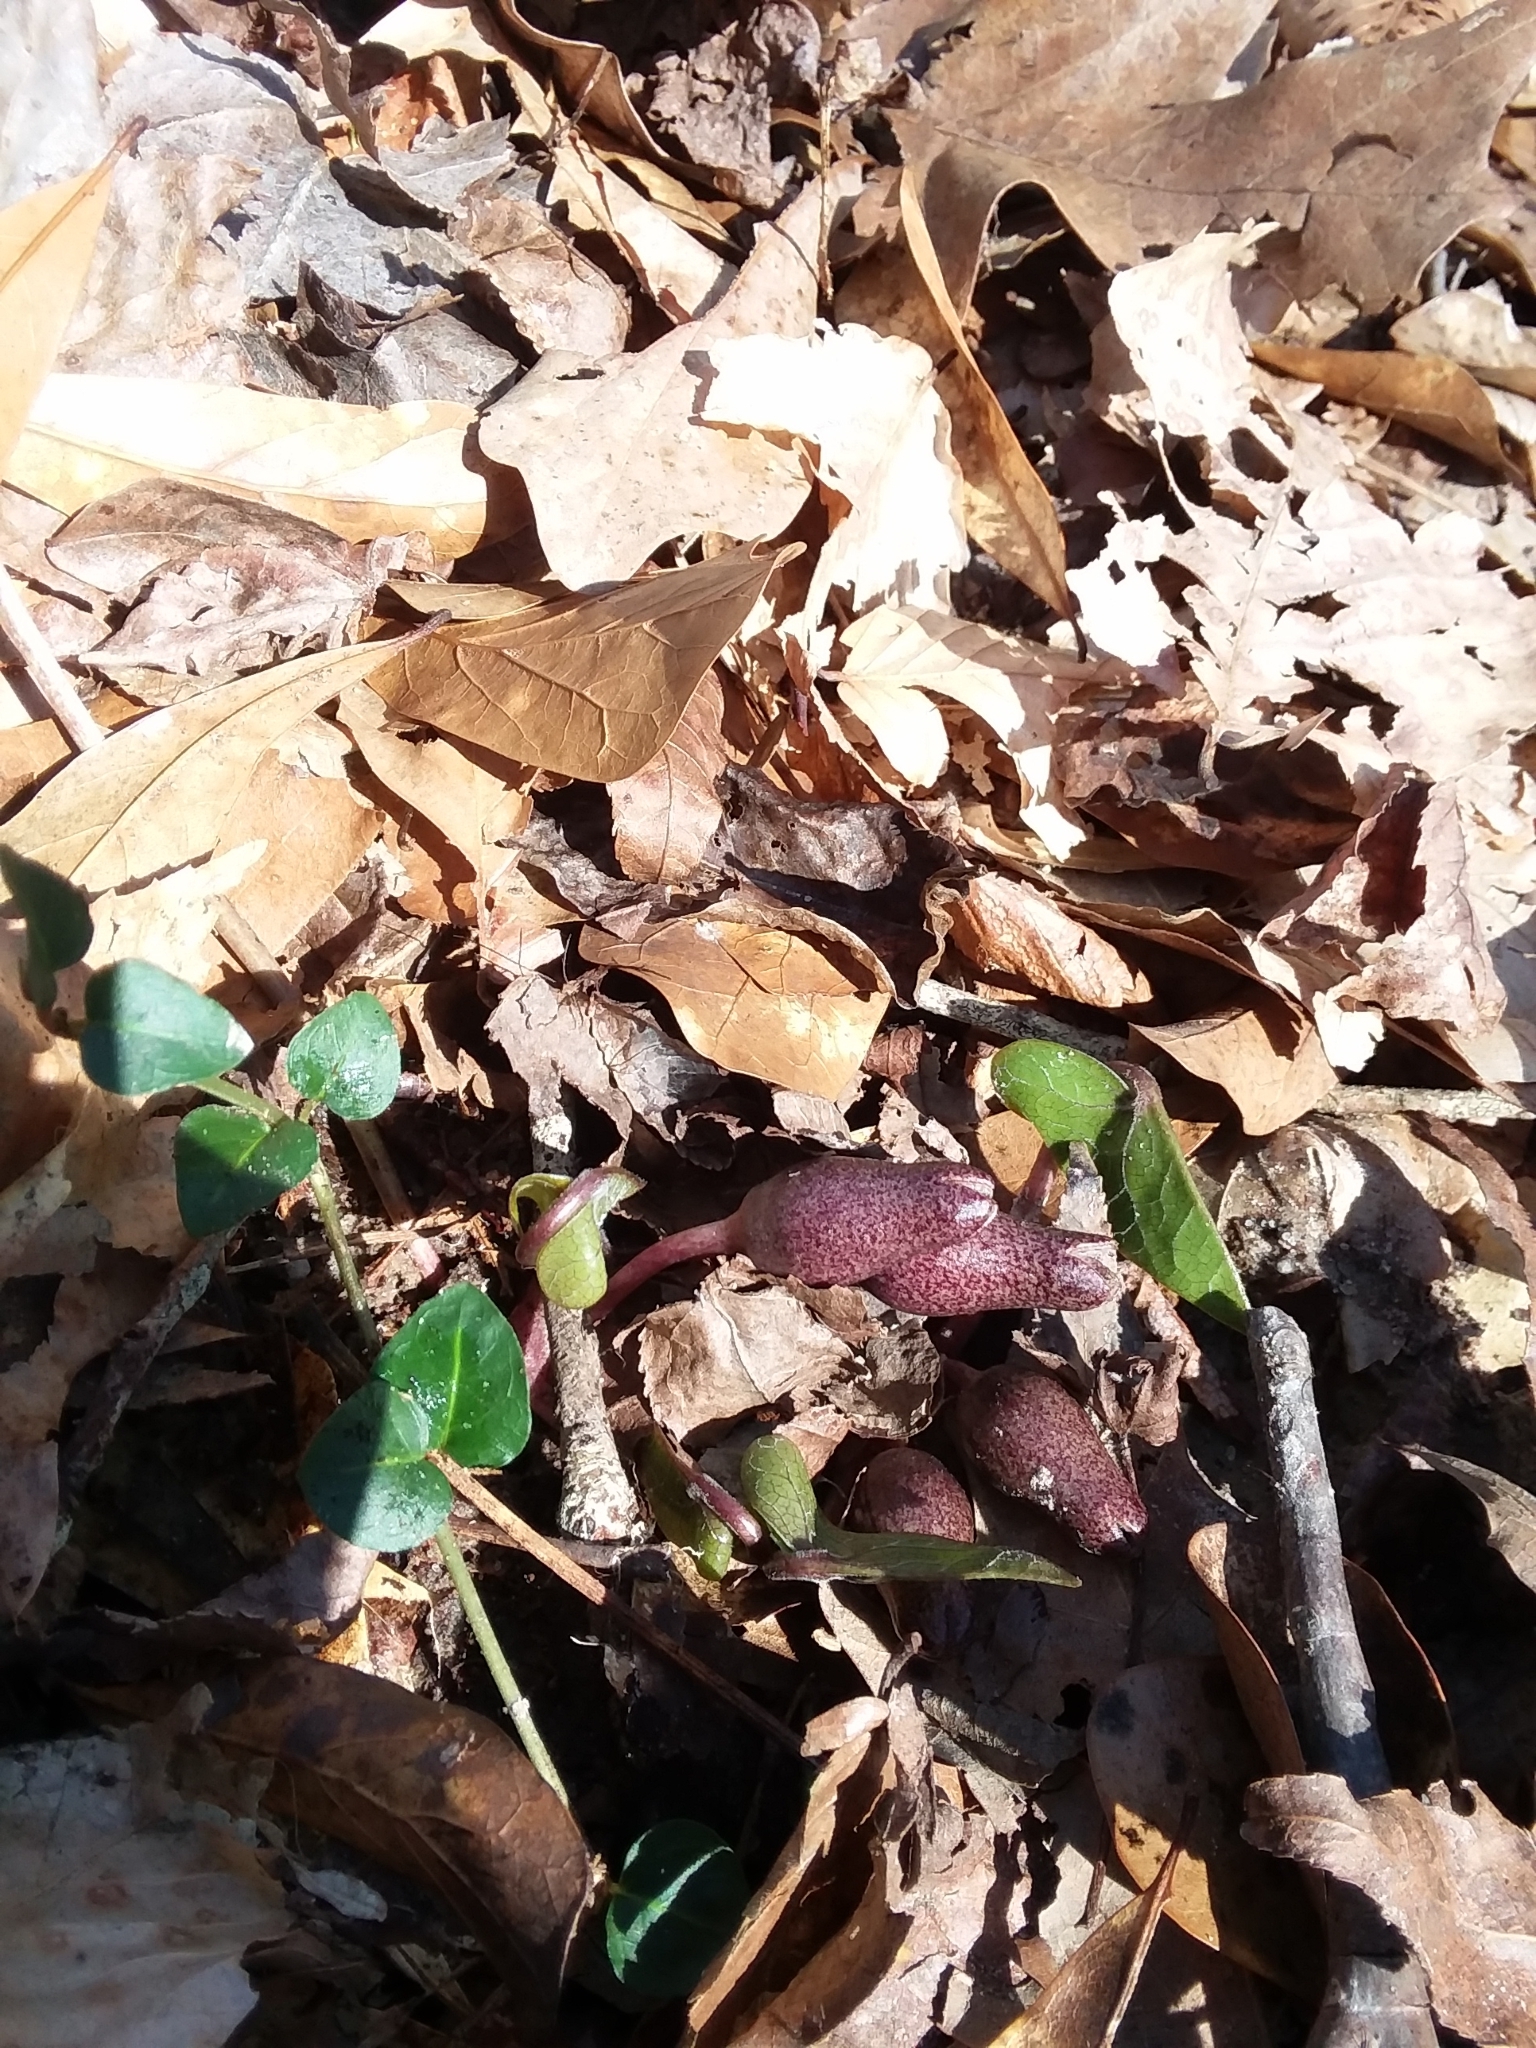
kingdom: Plantae
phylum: Tracheophyta
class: Magnoliopsida
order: Piperales
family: Aristolochiaceae
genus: Hexastylis
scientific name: Hexastylis arifolia
